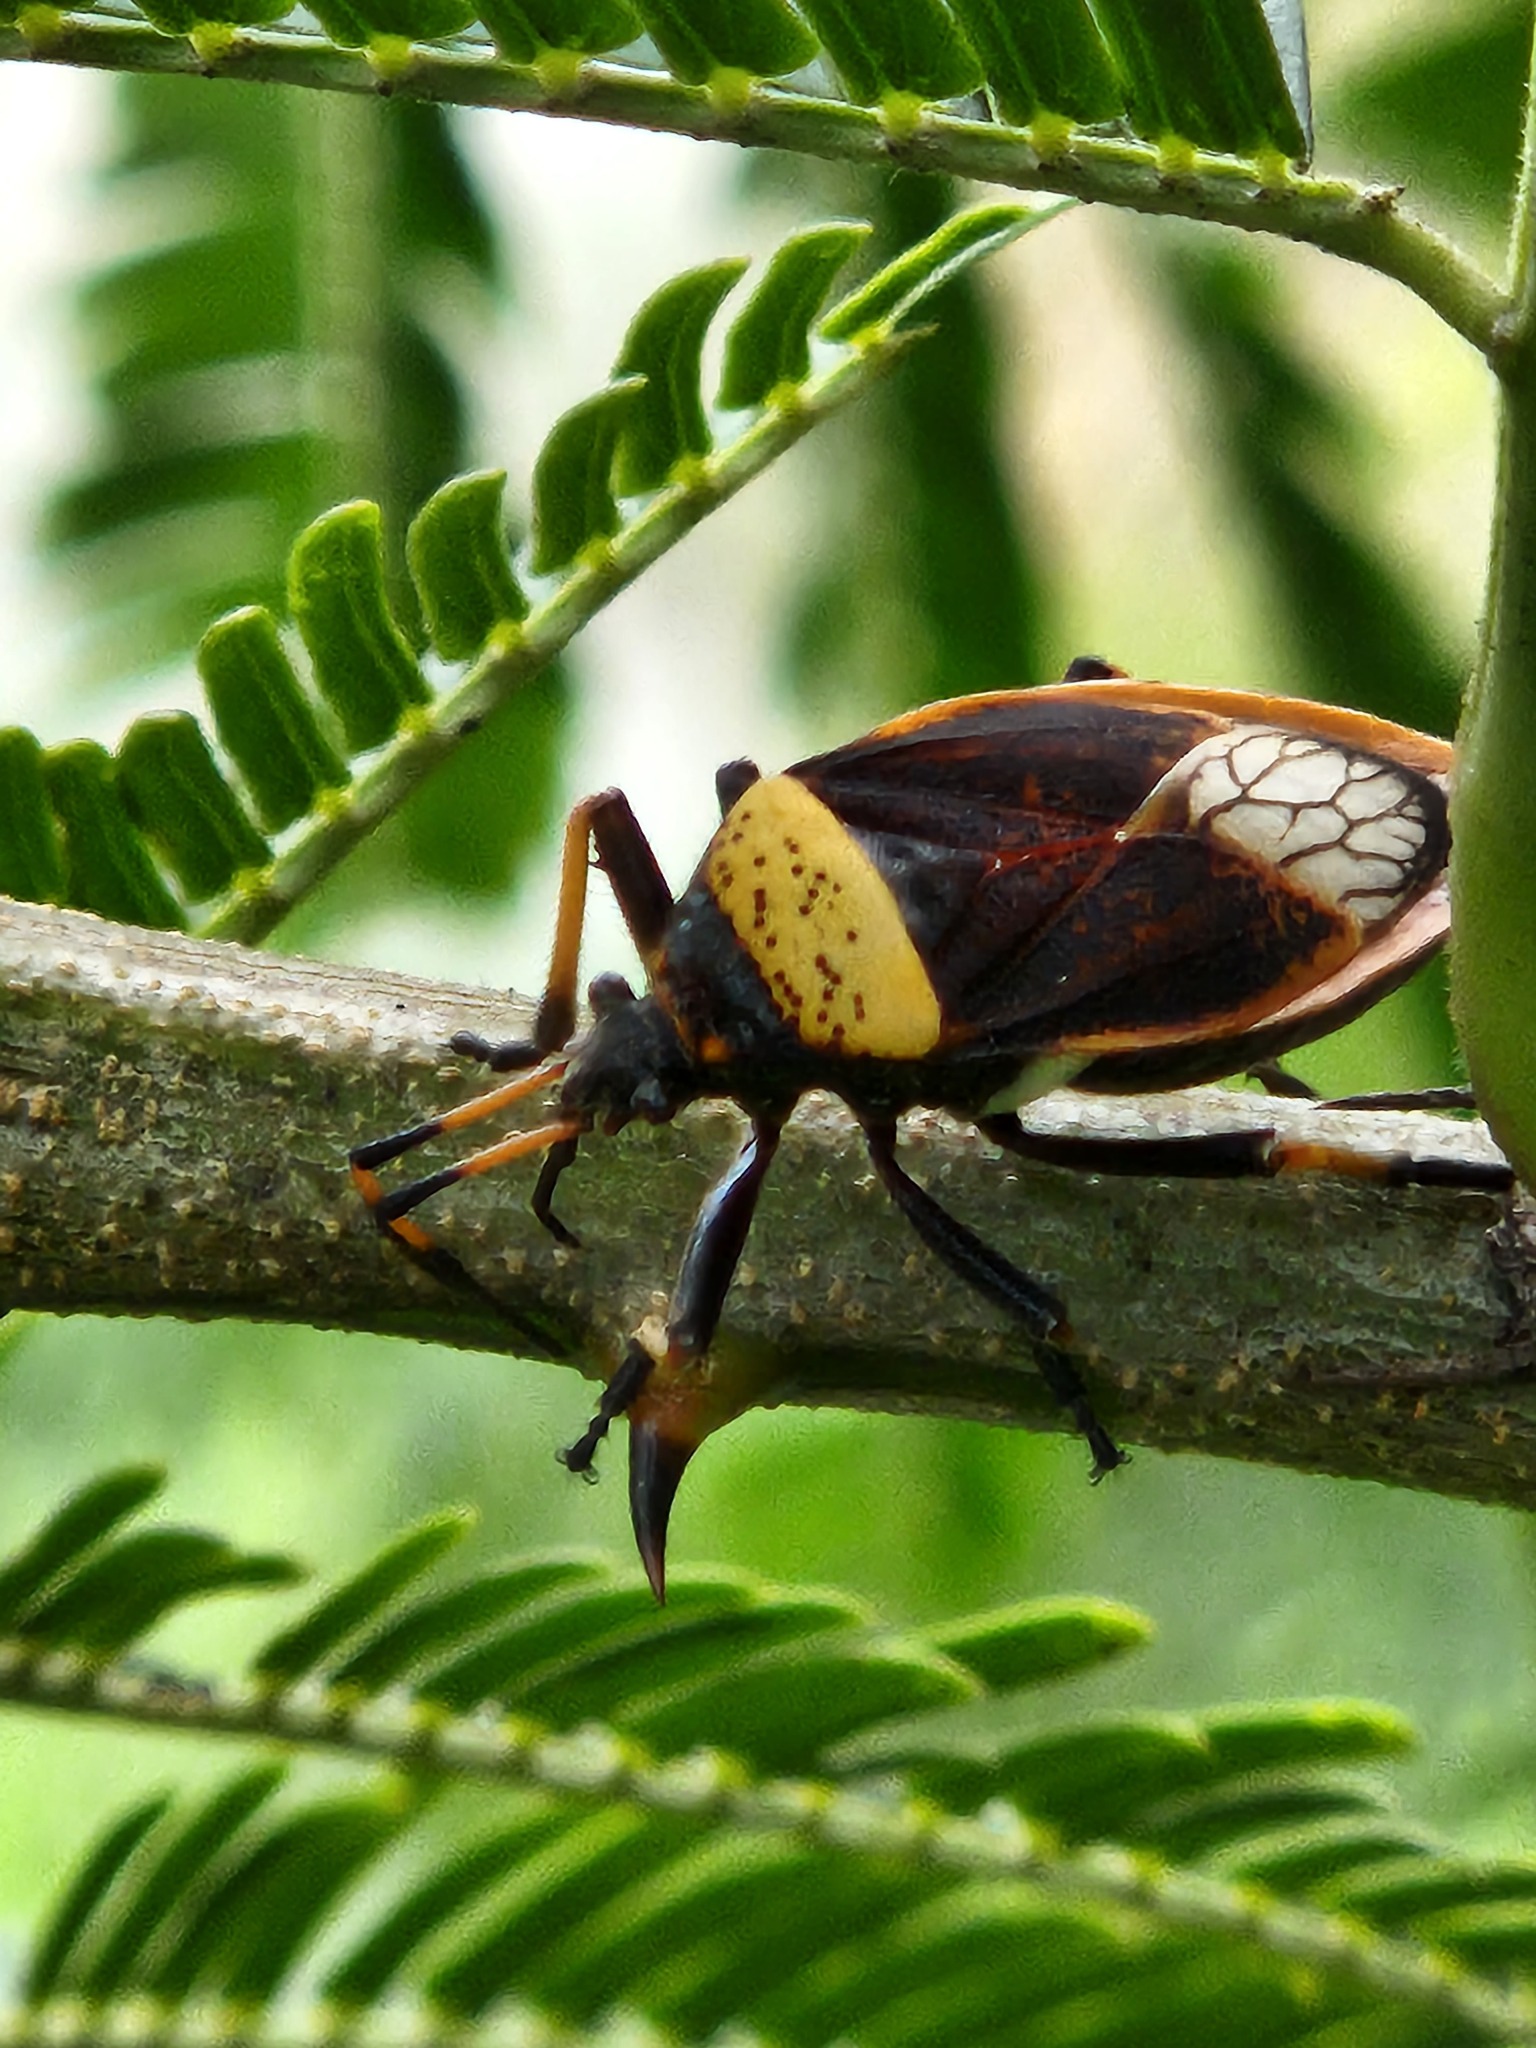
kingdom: Animalia
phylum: Arthropoda
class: Insecta
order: Hemiptera
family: Largidae
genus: Largus
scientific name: Largus humilis
